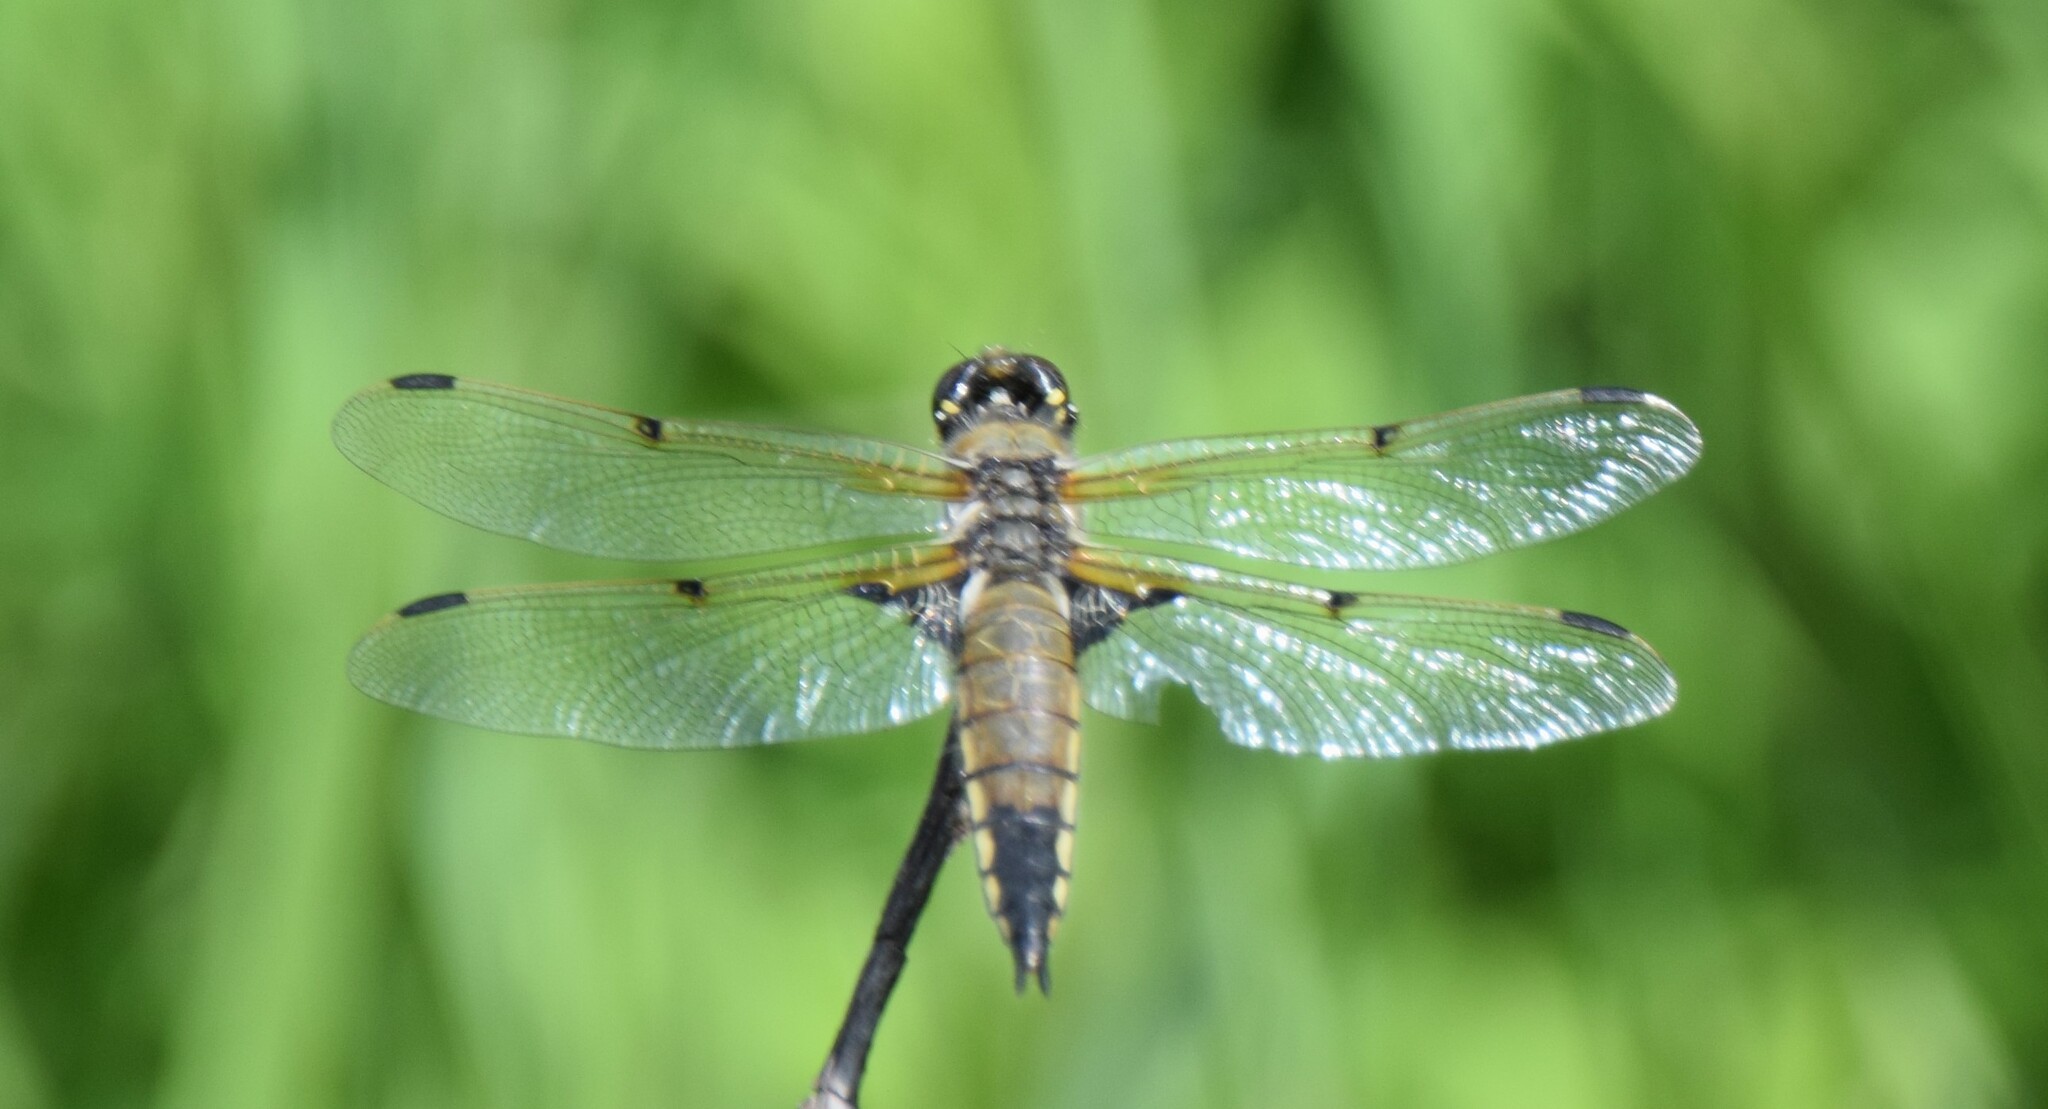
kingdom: Animalia
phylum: Arthropoda
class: Insecta
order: Odonata
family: Libellulidae
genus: Libellula
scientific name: Libellula quadrimaculata
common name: Four-spotted chaser
